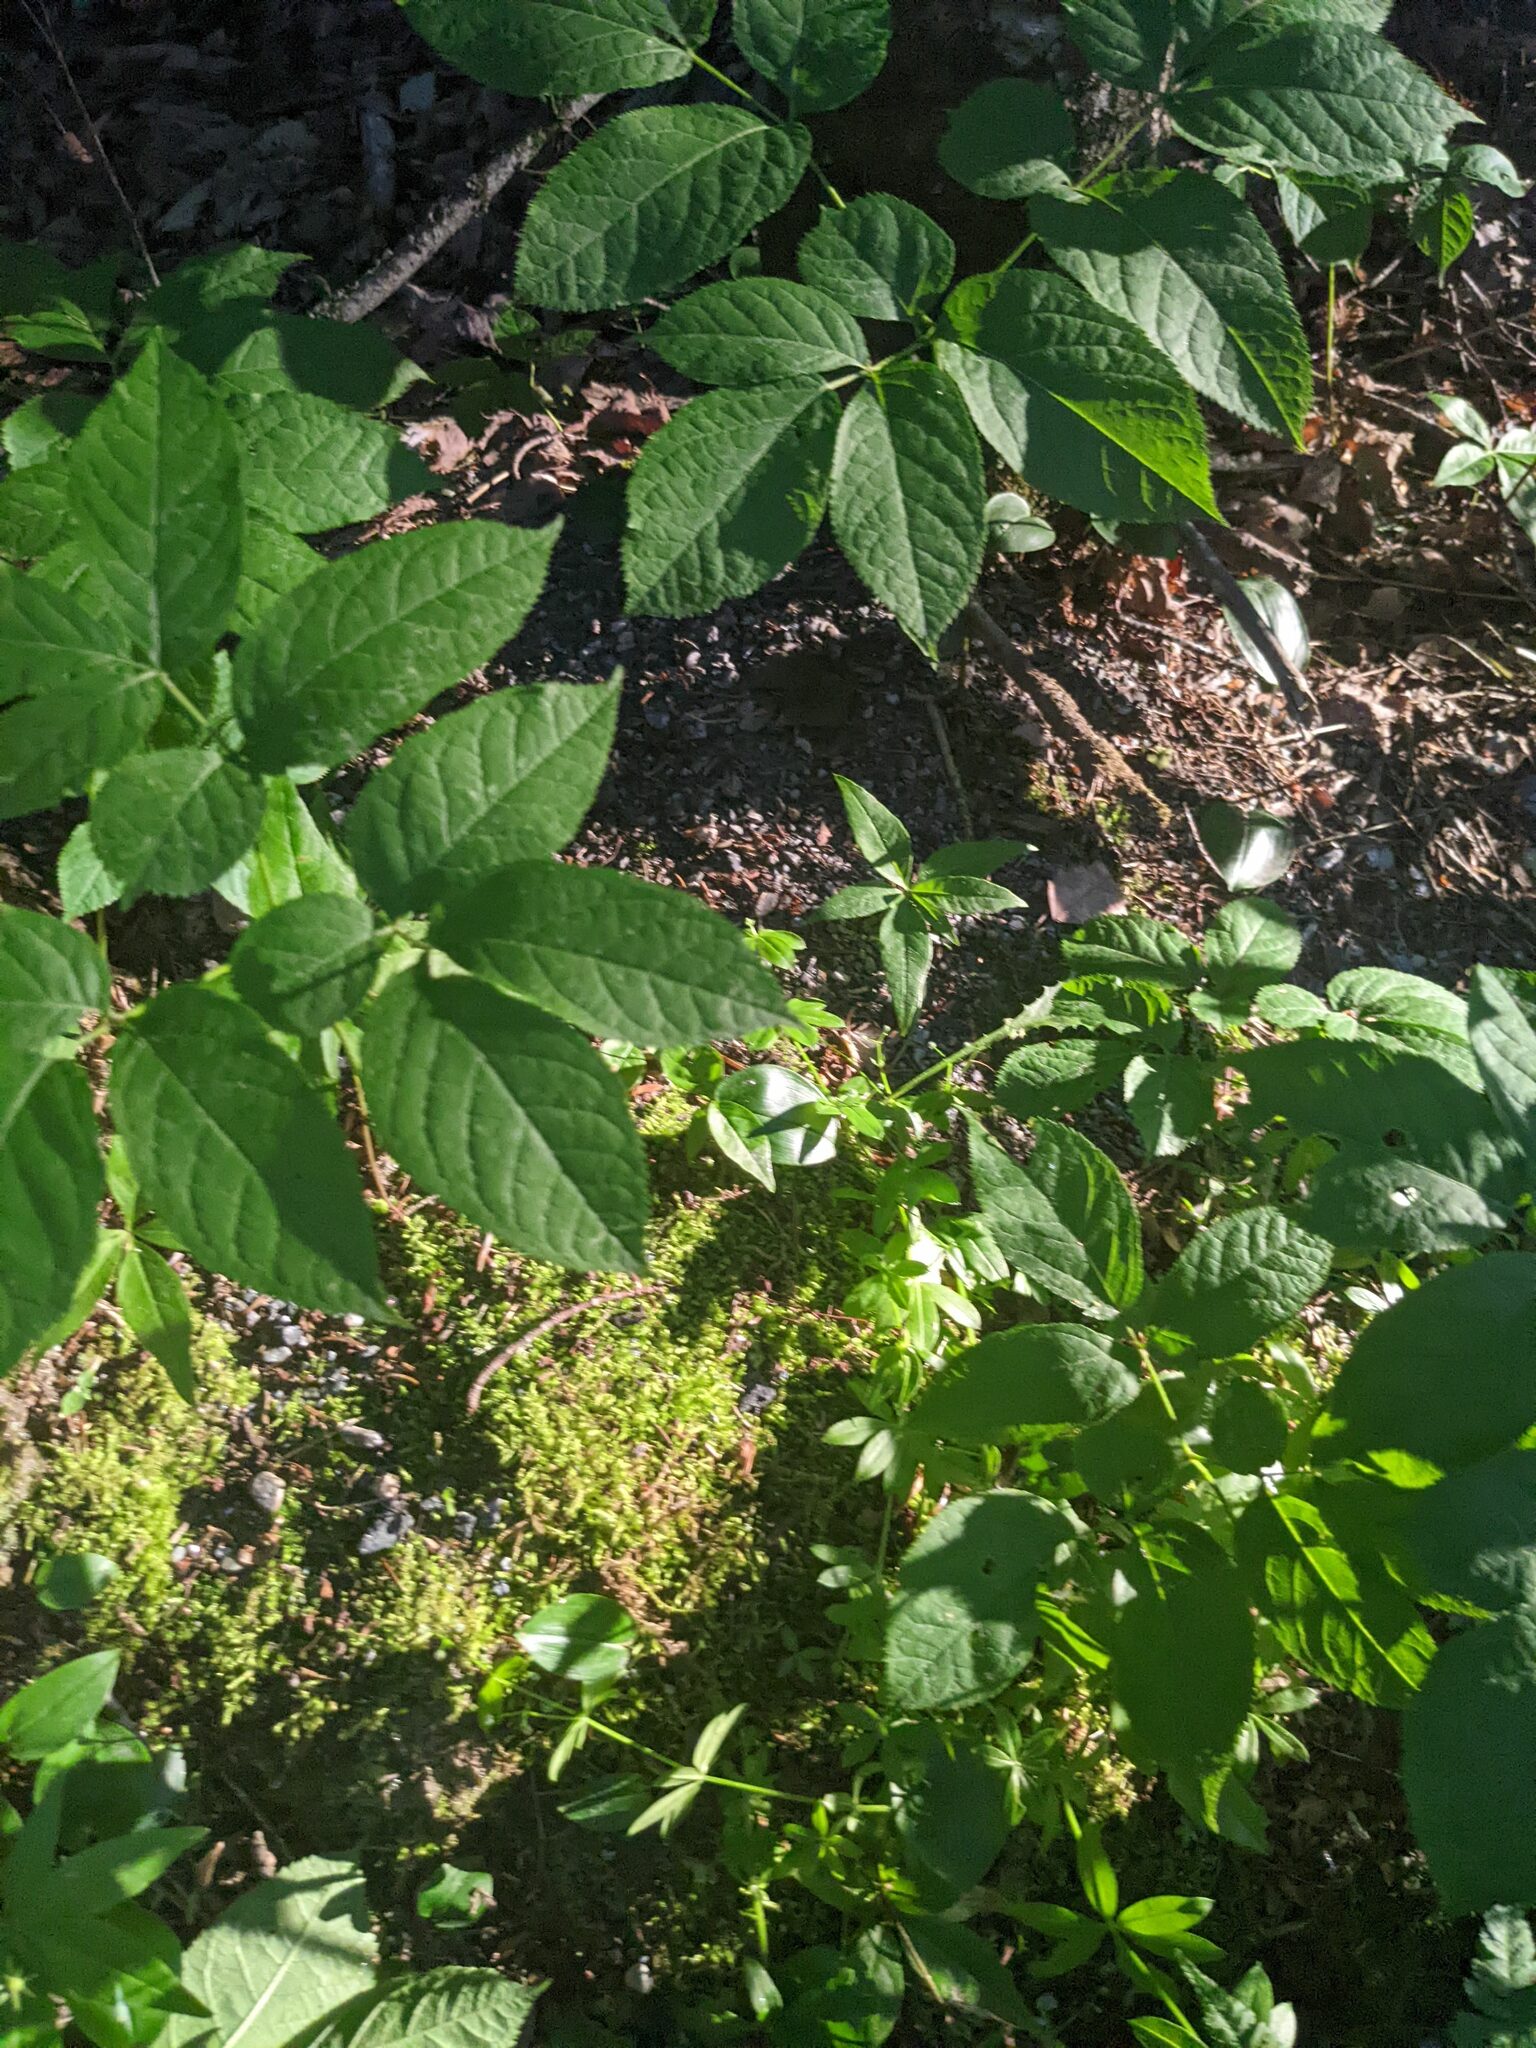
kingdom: Plantae
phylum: Tracheophyta
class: Magnoliopsida
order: Ericales
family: Primulaceae
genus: Lysimachia
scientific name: Lysimachia borealis
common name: American starflower
